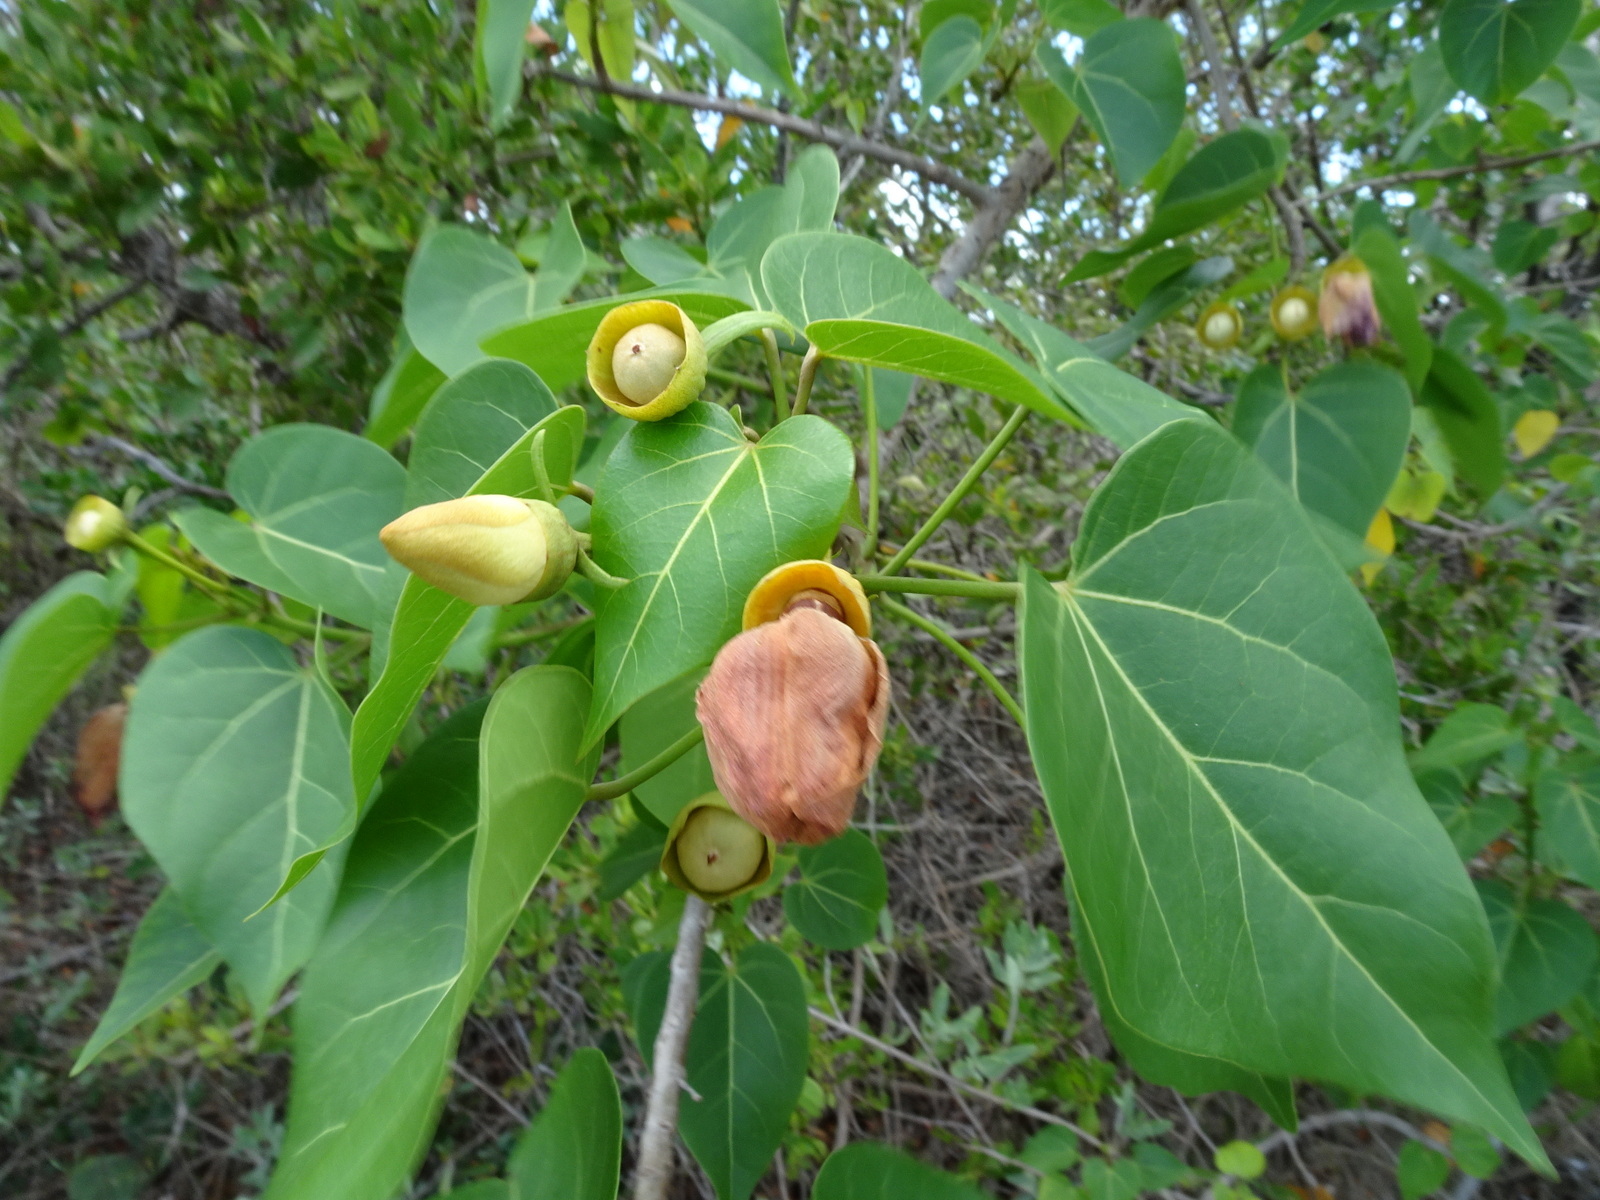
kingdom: Plantae
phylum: Tracheophyta
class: Magnoliopsida
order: Malvales
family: Malvaceae
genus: Thespesia
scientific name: Thespesia populnea
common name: Seaside mahoe
